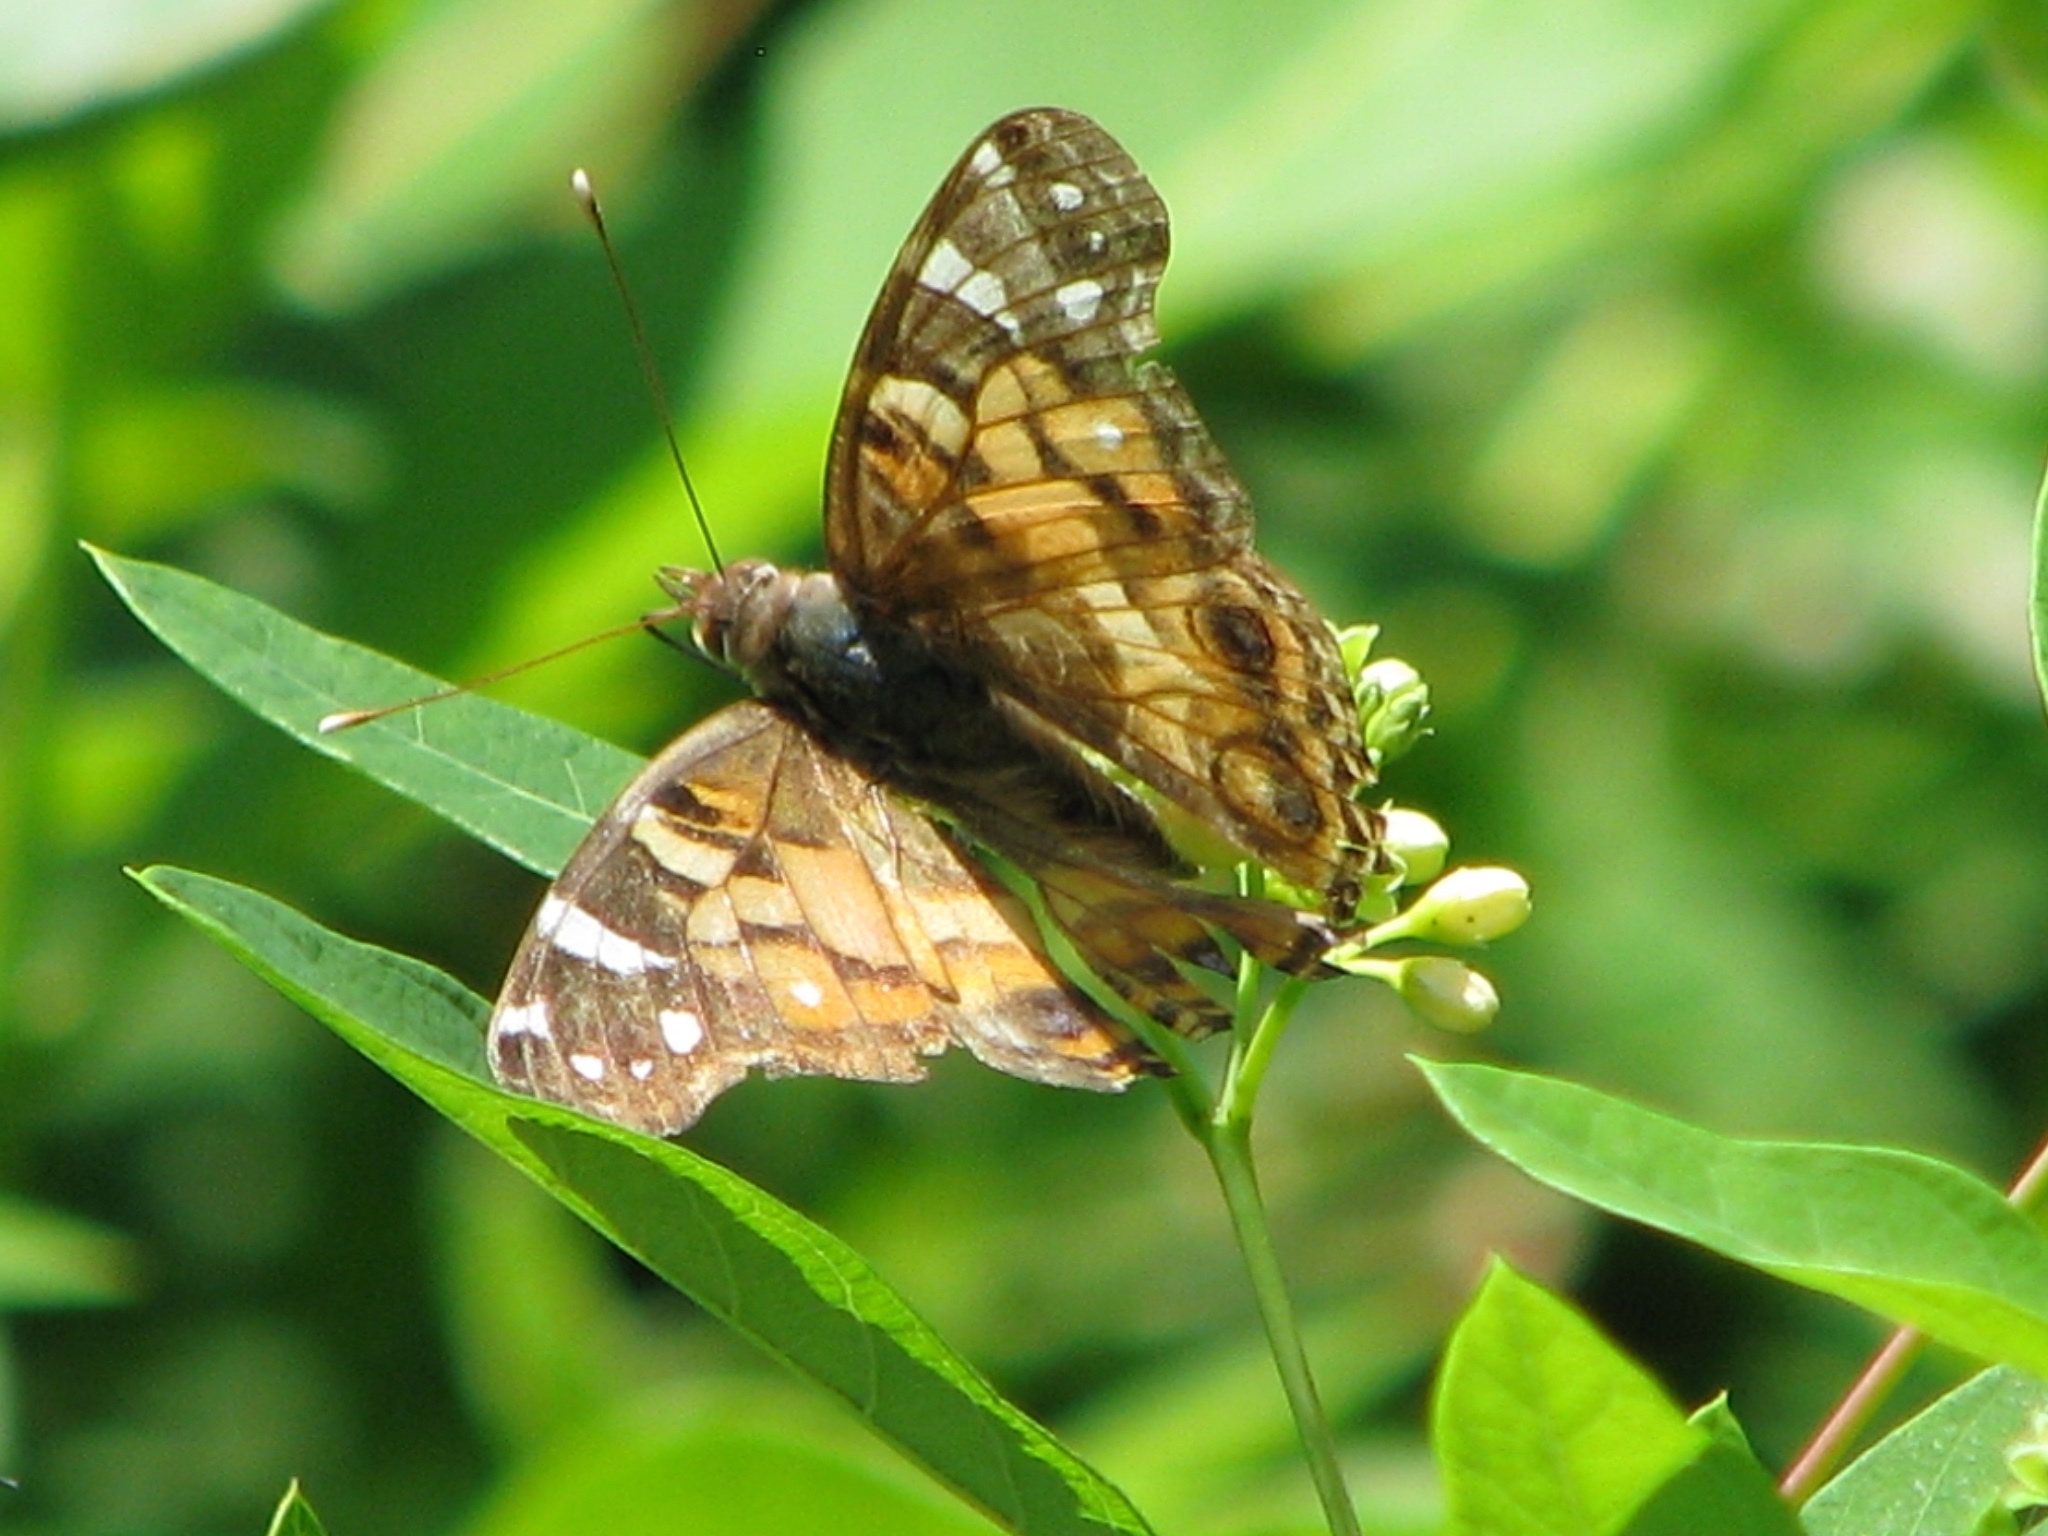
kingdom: Animalia
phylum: Arthropoda
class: Insecta
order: Lepidoptera
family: Nymphalidae
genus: Vanessa
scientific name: Vanessa virginiensis
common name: American lady
